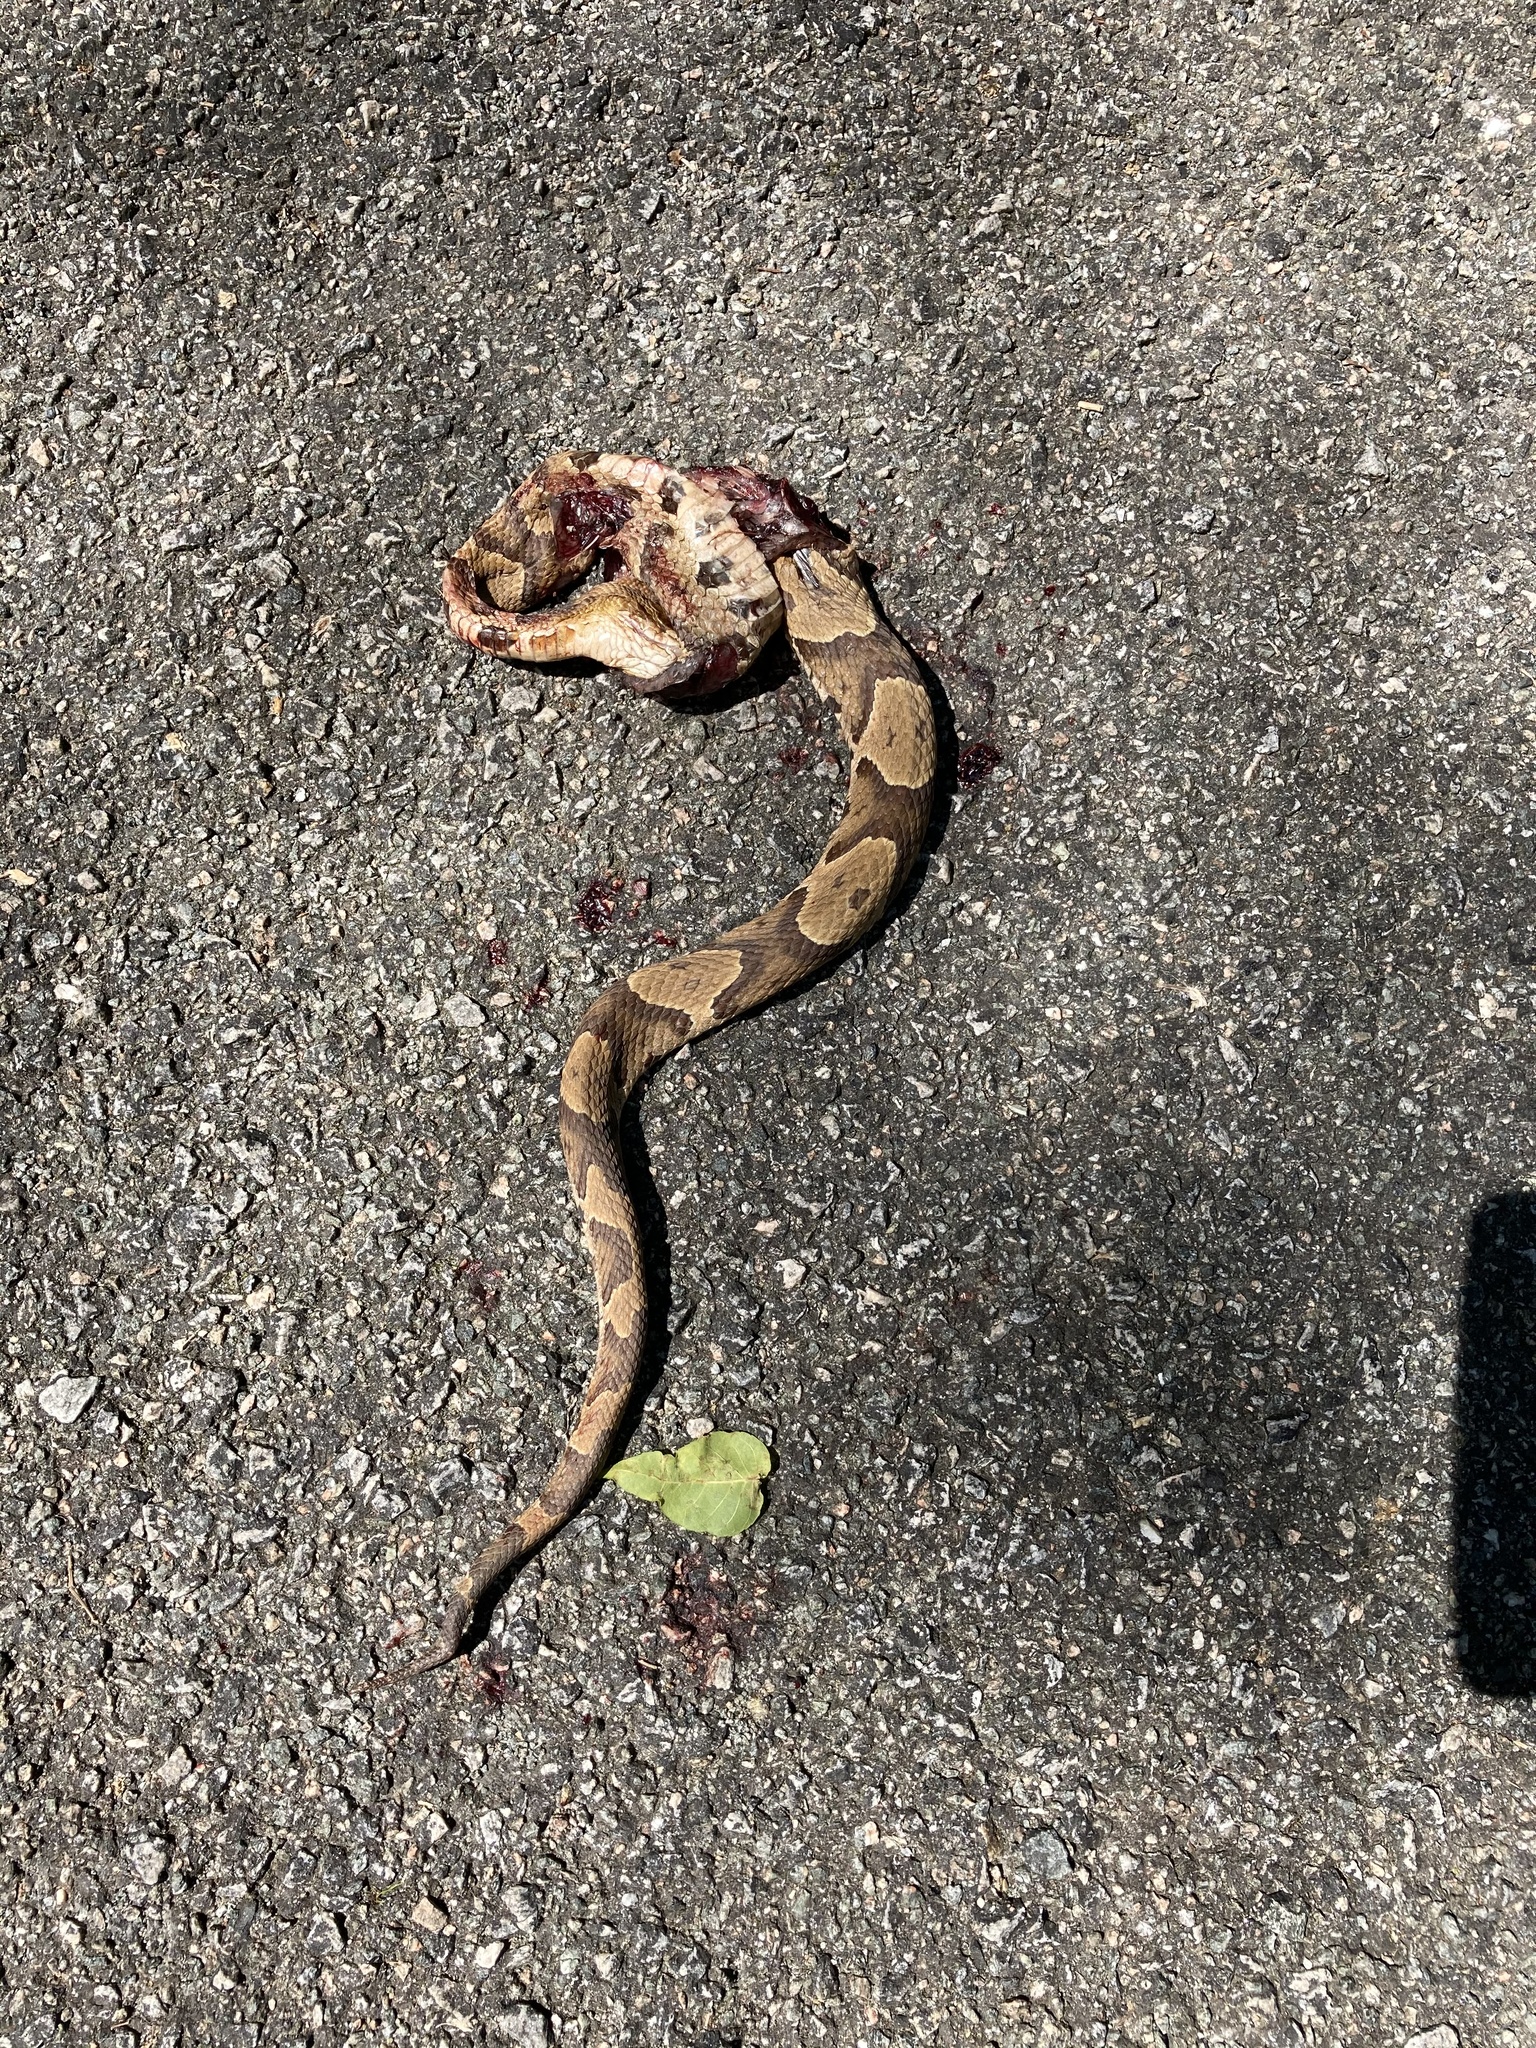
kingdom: Animalia
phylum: Chordata
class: Squamata
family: Viperidae
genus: Agkistrodon
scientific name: Agkistrodon contortrix
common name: Northern copperhead
